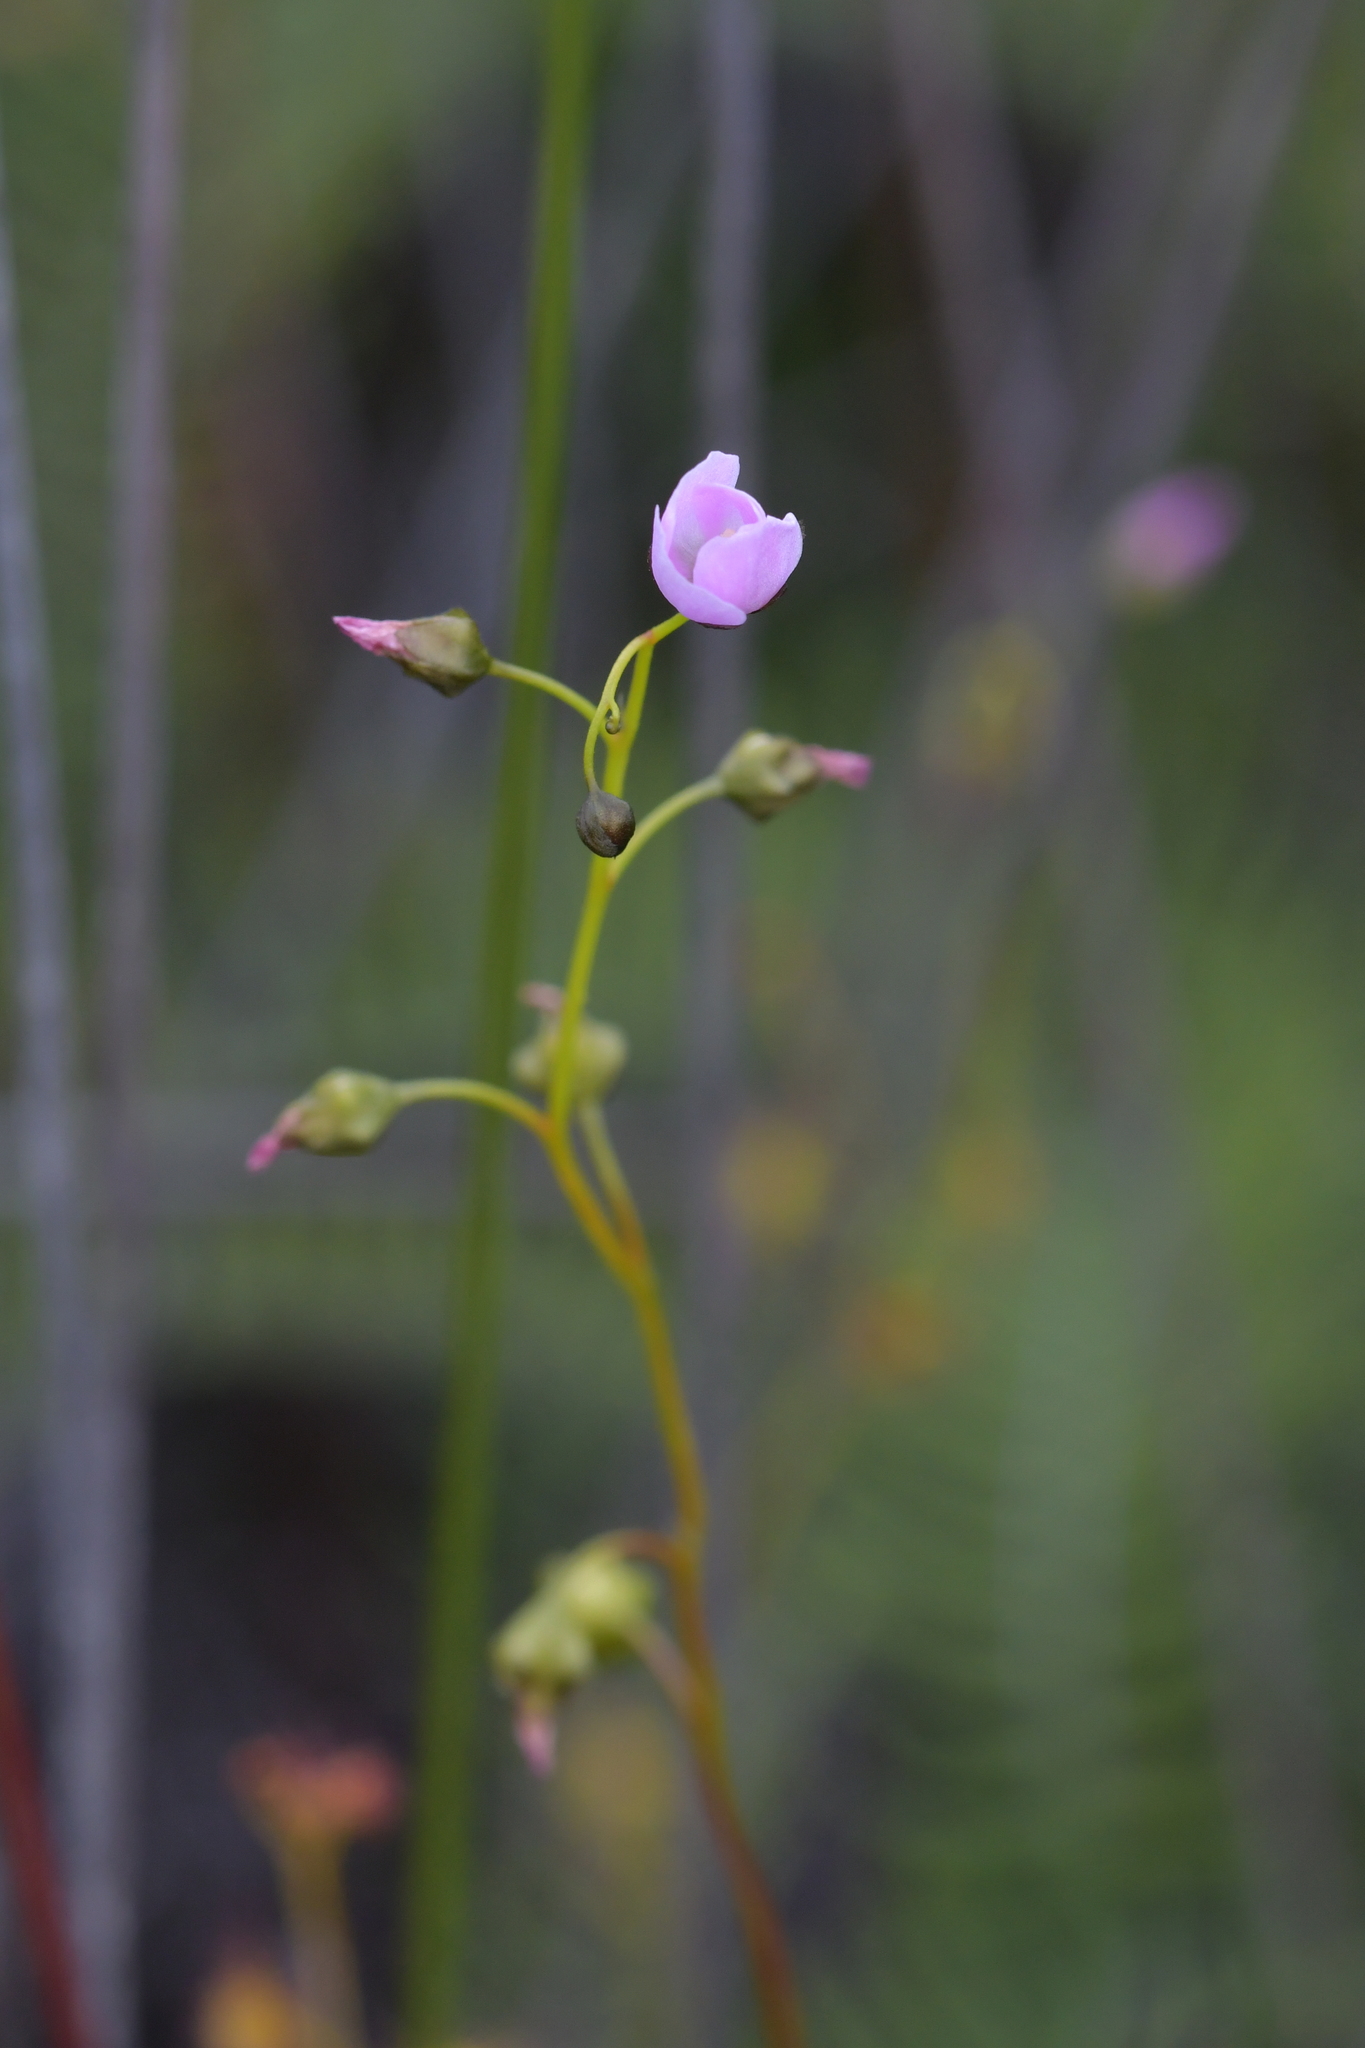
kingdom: Plantae
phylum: Tracheophyta
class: Magnoliopsida
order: Caryophyllales
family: Droseraceae
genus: Drosera
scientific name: Drosera peltata
